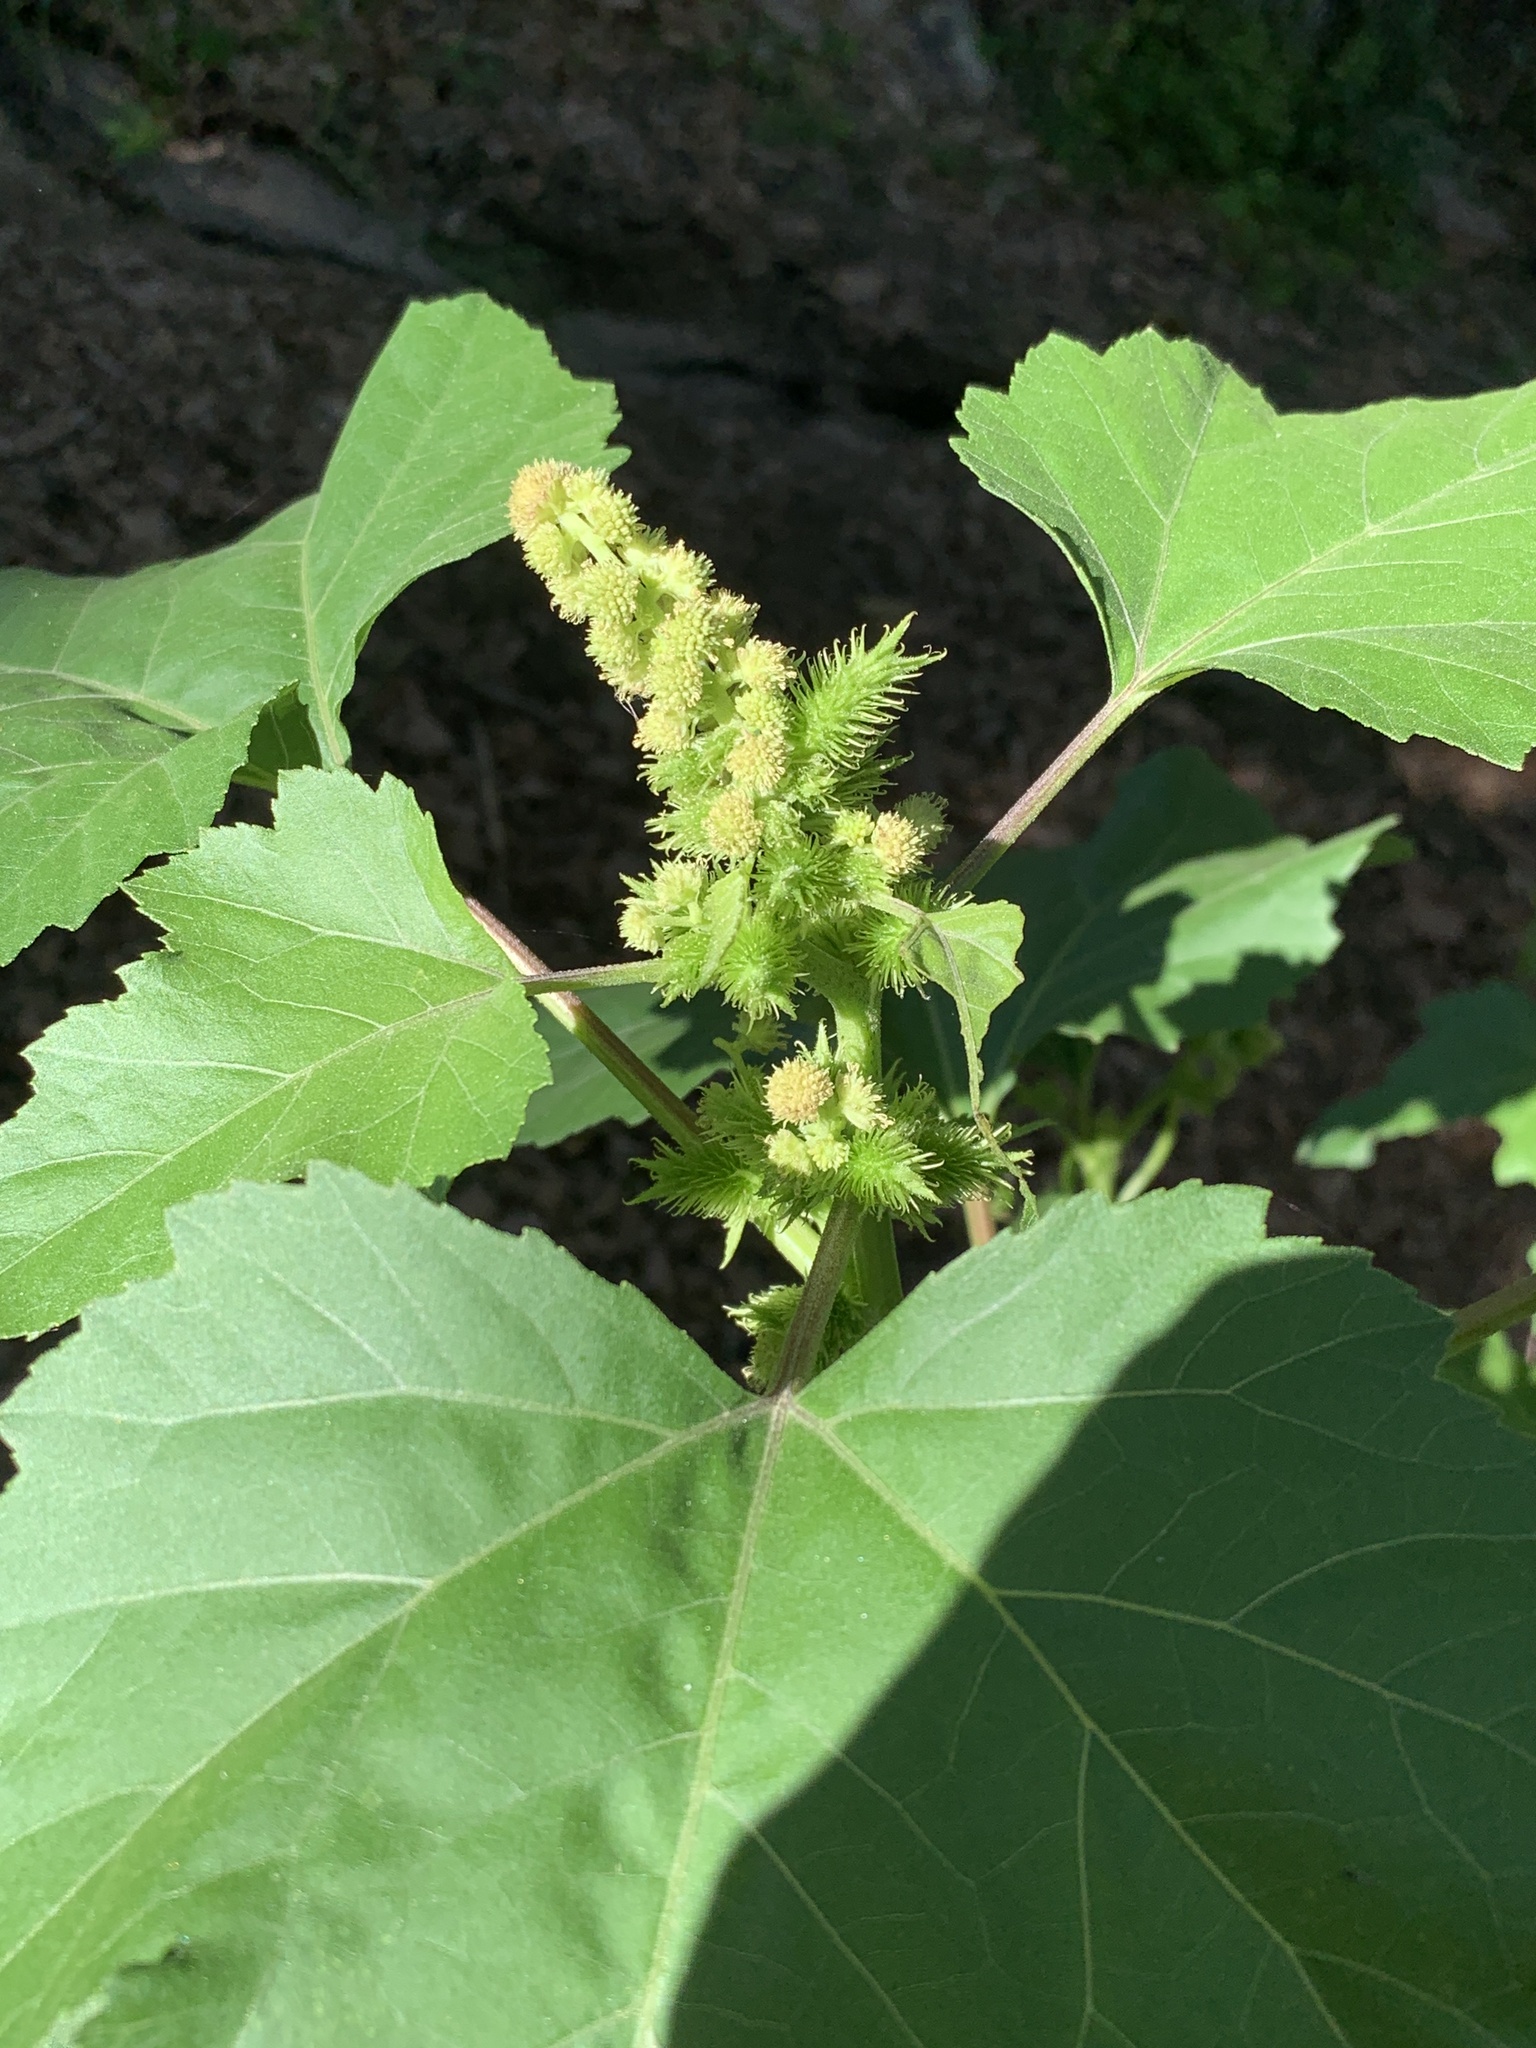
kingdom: Plantae
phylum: Tracheophyta
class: Magnoliopsida
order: Asterales
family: Asteraceae
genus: Xanthium
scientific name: Xanthium strumarium
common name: Rough cocklebur
